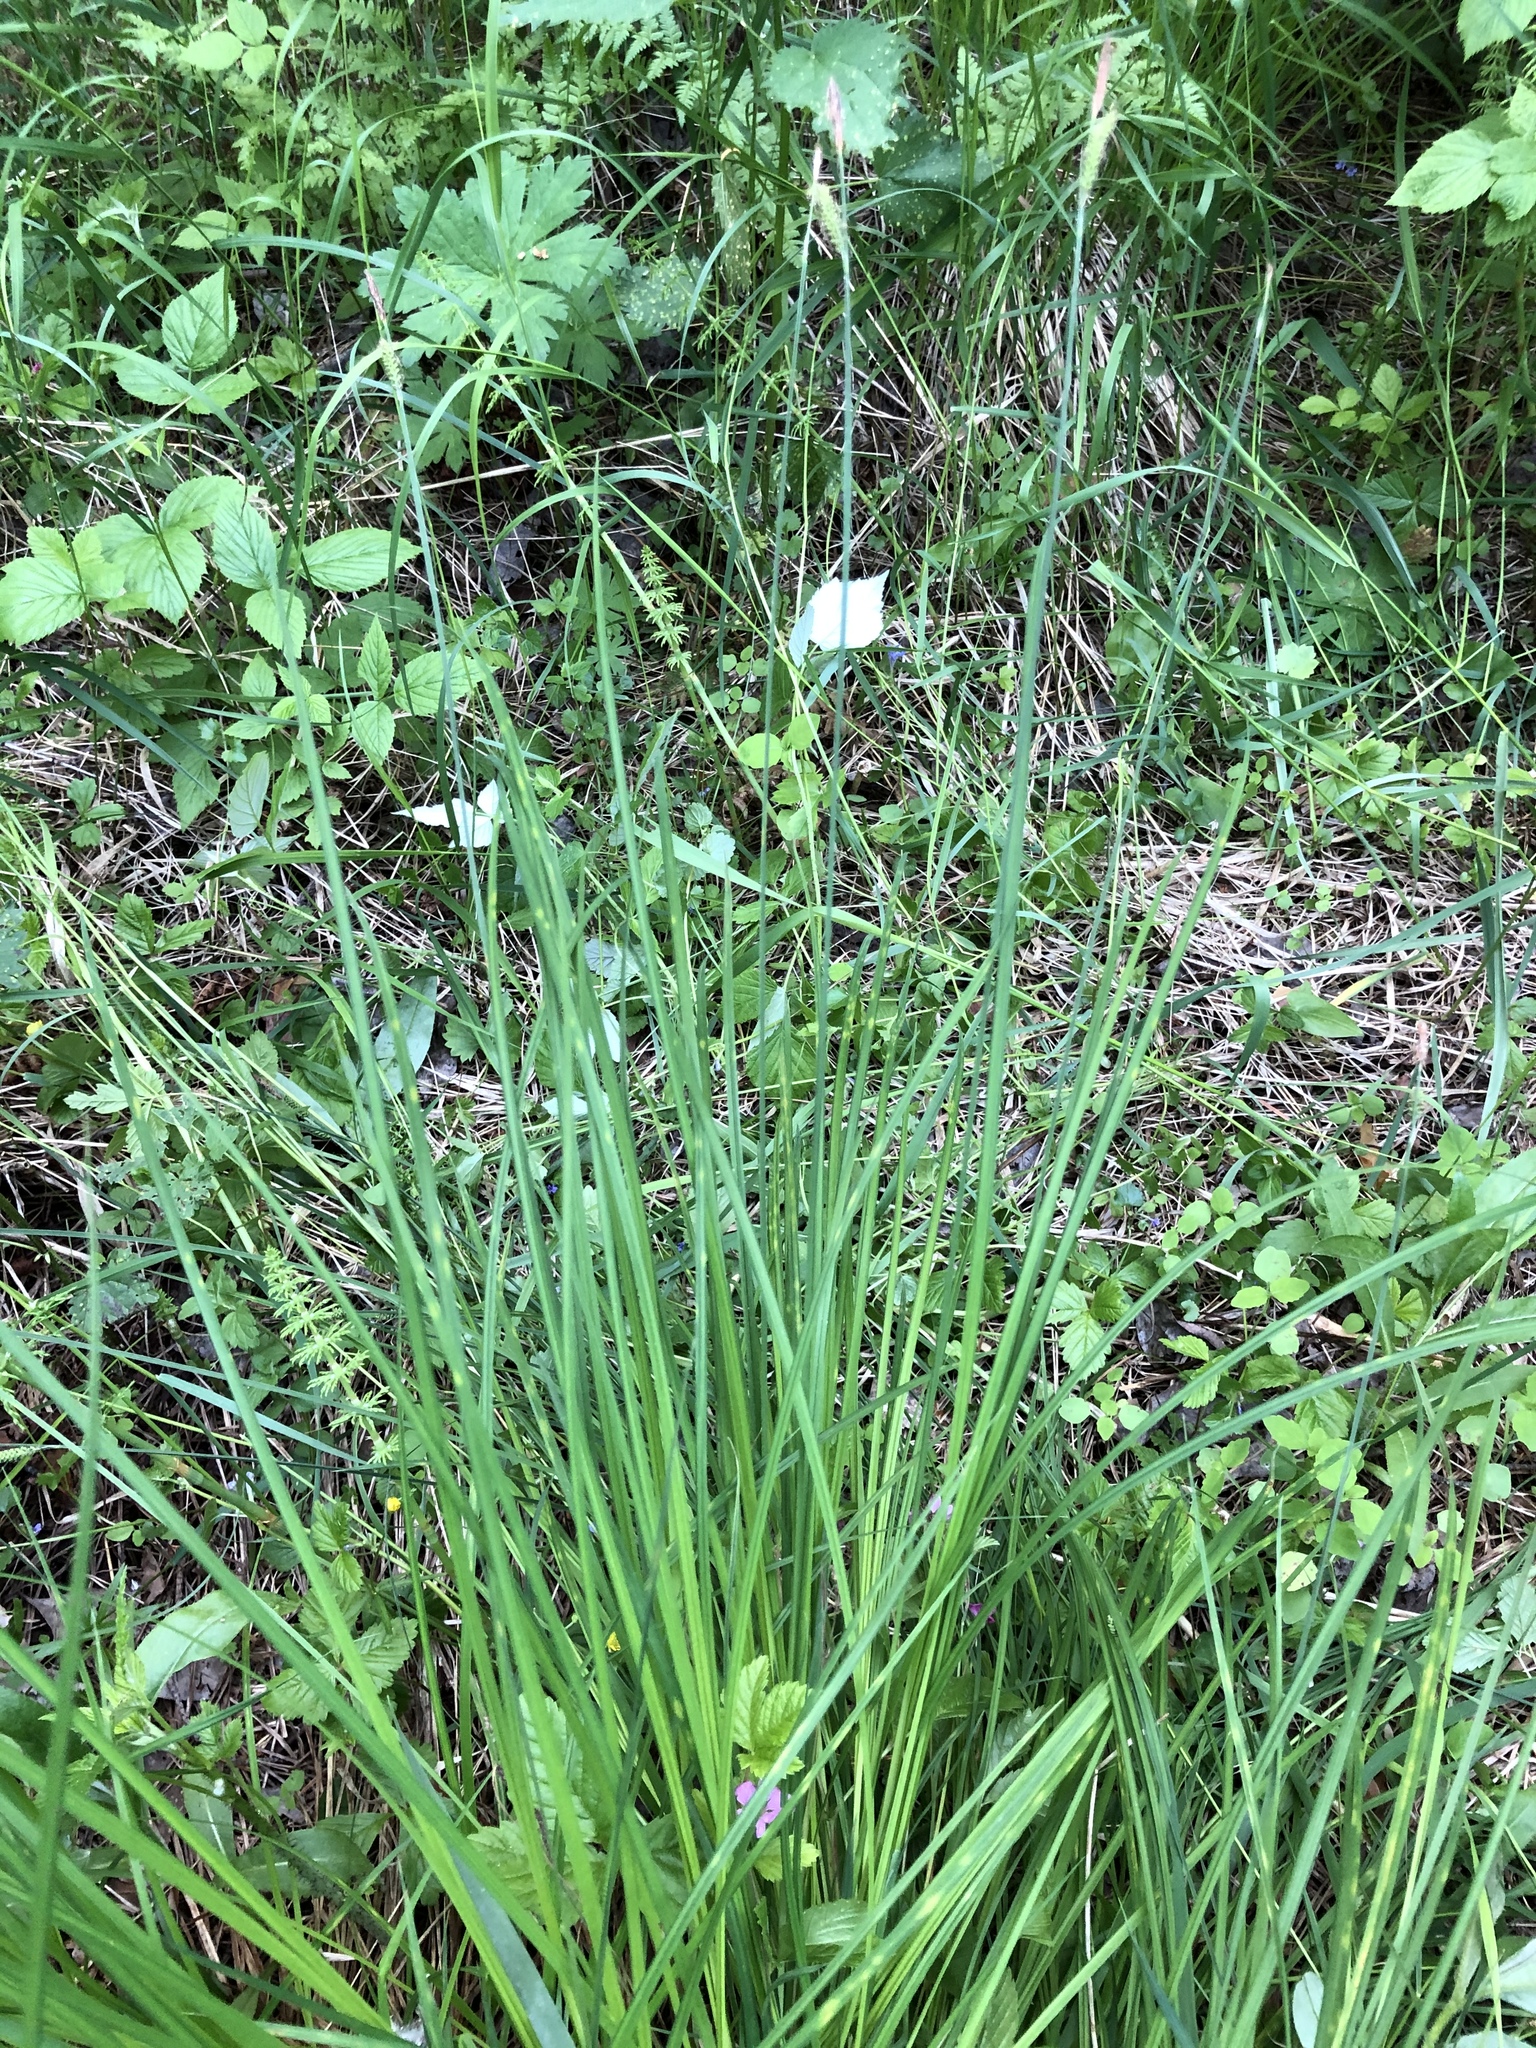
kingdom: Plantae
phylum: Tracheophyta
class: Liliopsida
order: Poales
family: Cyperaceae
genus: Carex
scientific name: Carex nigra
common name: Common sedge
